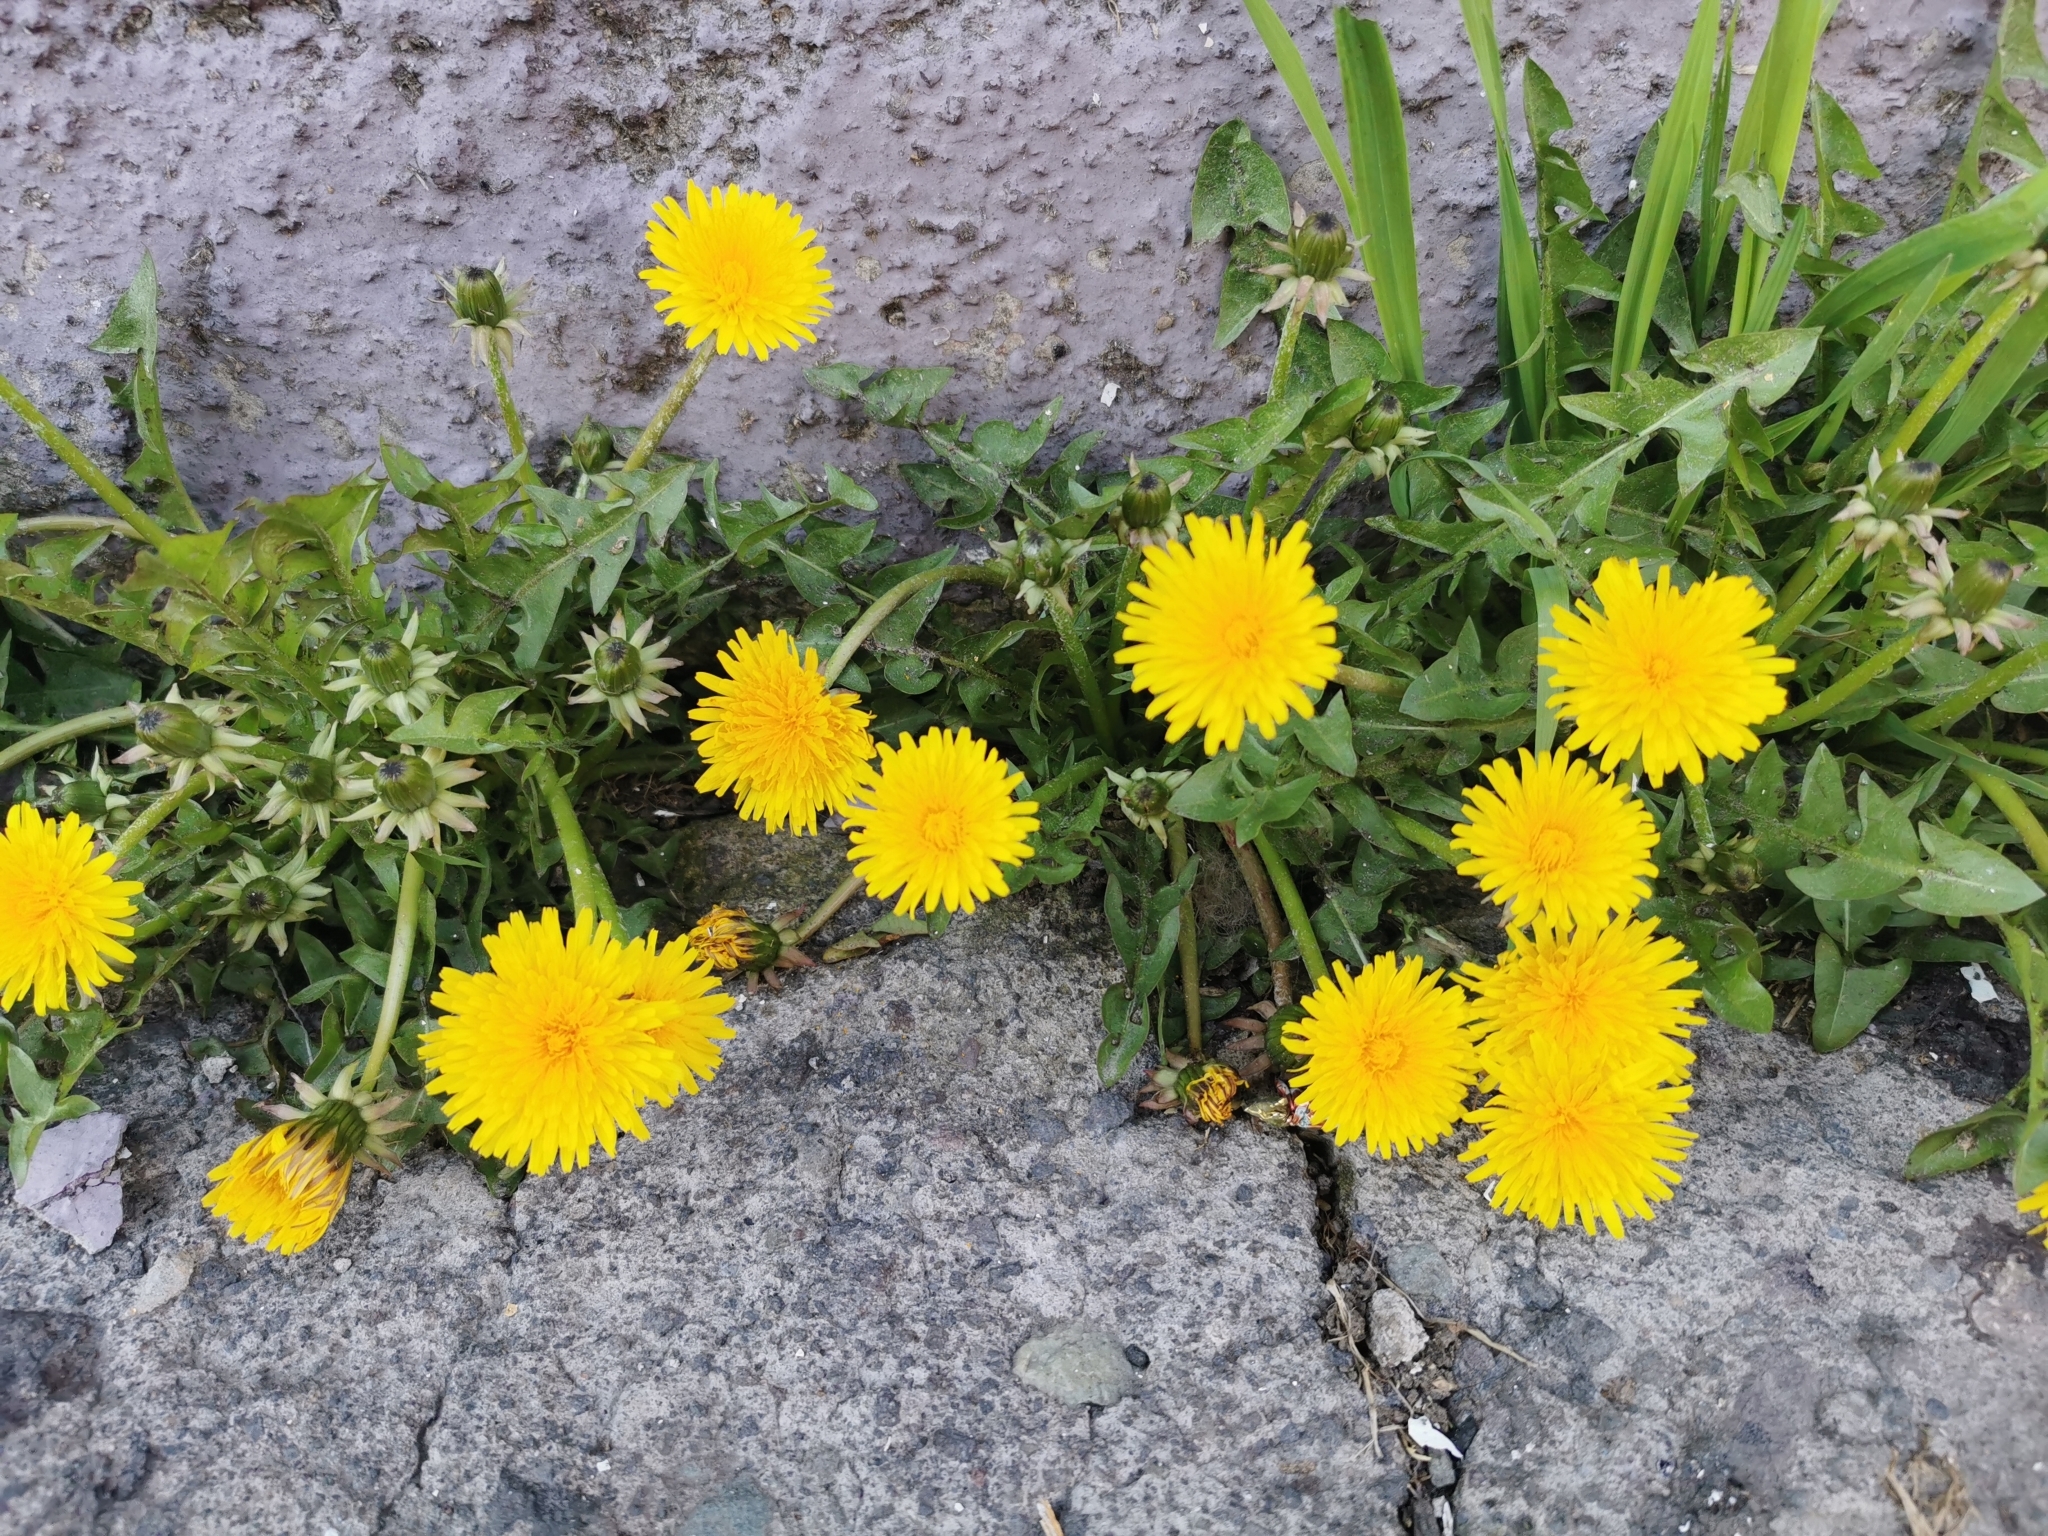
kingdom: Plantae
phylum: Tracheophyta
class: Magnoliopsida
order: Asterales
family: Asteraceae
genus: Taraxacum
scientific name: Taraxacum officinale
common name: Common dandelion
